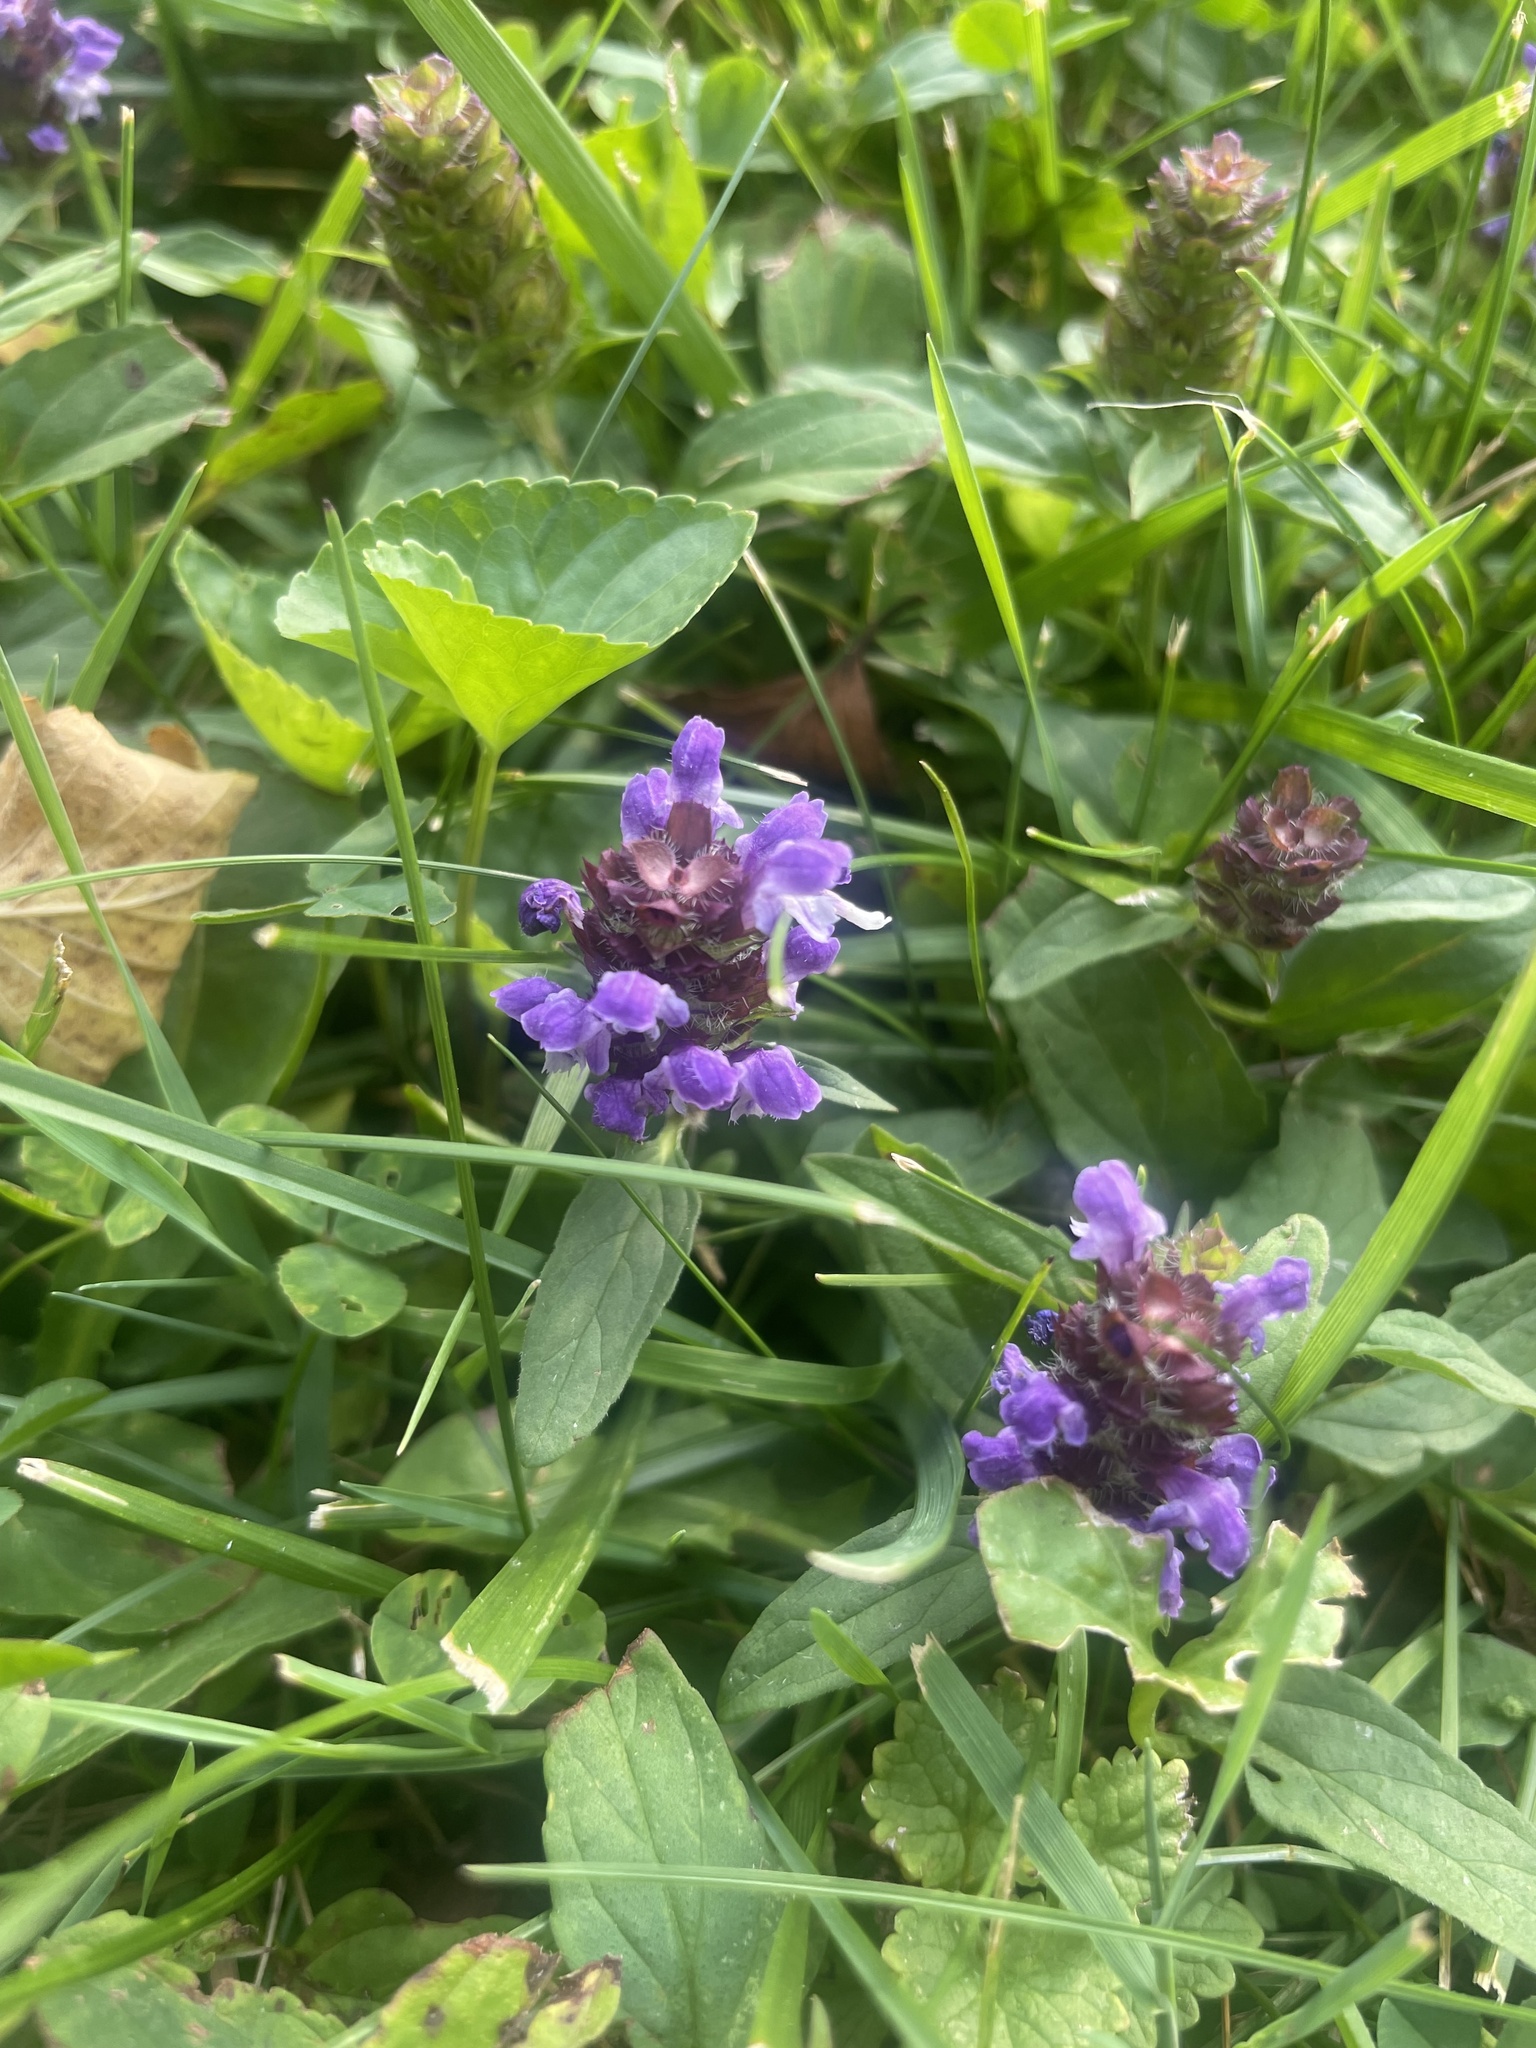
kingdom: Plantae
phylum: Tracheophyta
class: Magnoliopsida
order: Lamiales
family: Lamiaceae
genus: Prunella
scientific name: Prunella vulgaris
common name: Heal-all
